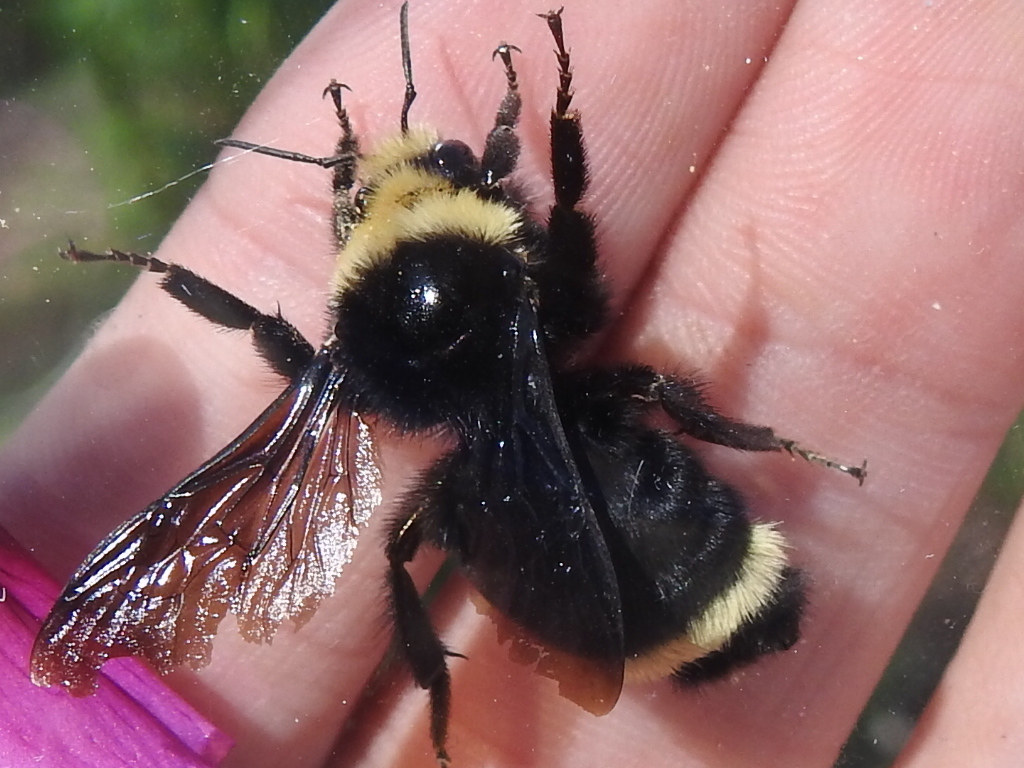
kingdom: Animalia
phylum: Arthropoda
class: Insecta
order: Hymenoptera
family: Apidae
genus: Bombus
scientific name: Bombus vosnesenskii
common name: Vosnesensky bumble bee
